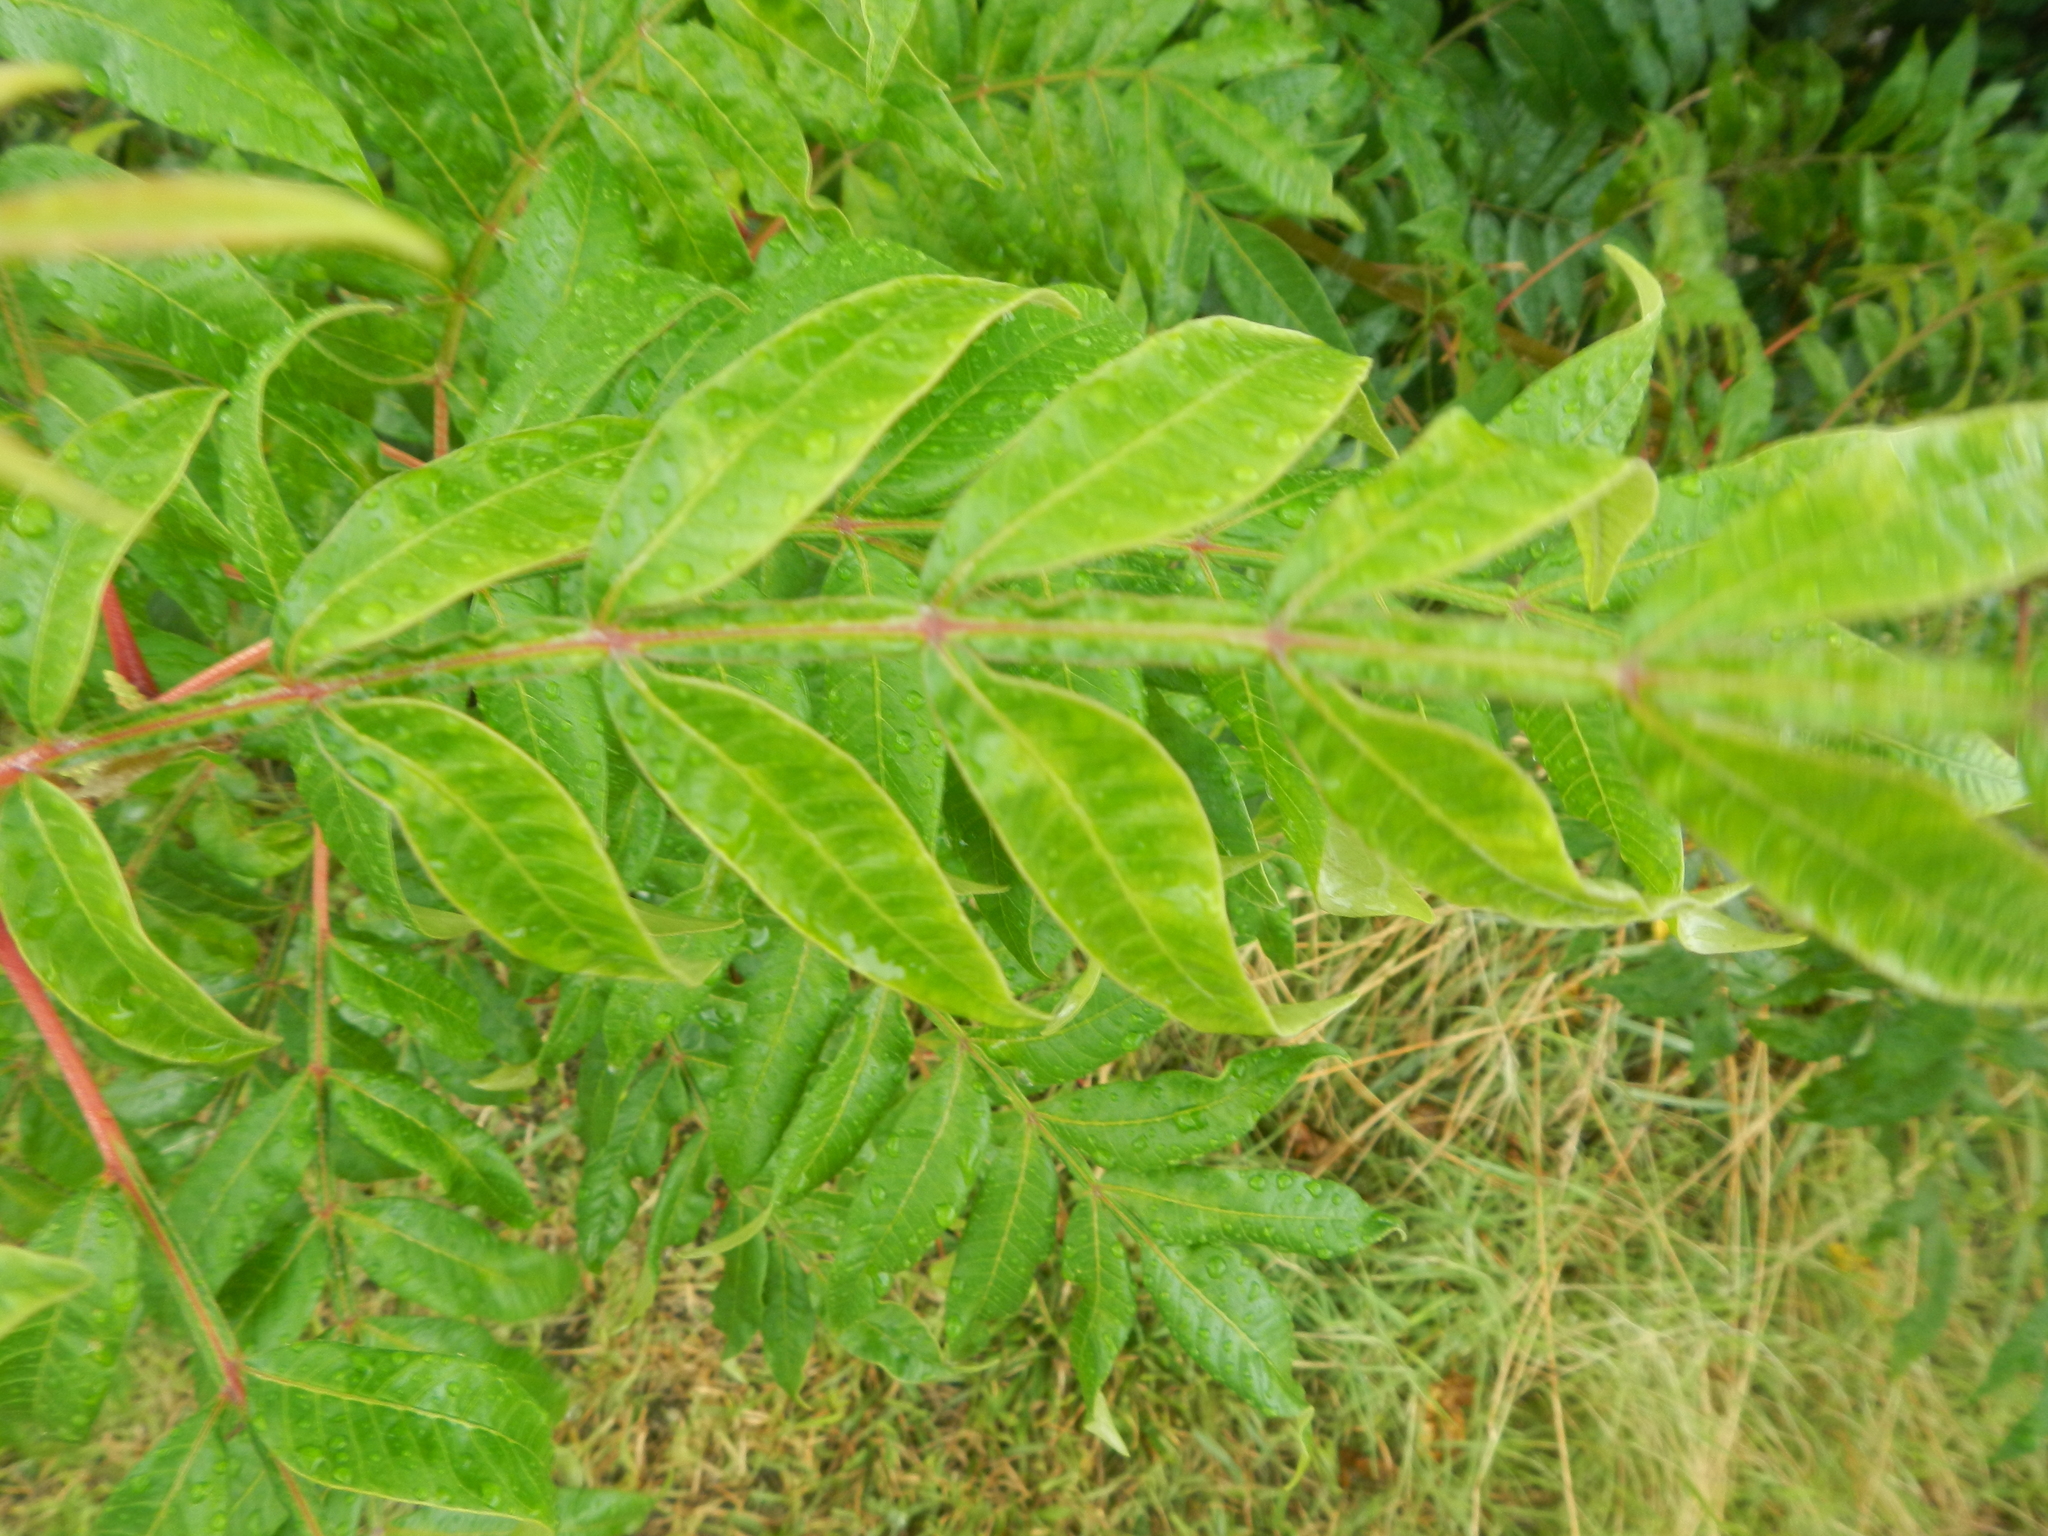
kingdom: Plantae
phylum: Tracheophyta
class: Magnoliopsida
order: Sapindales
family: Anacardiaceae
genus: Rhus
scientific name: Rhus copallina
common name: Shining sumac
